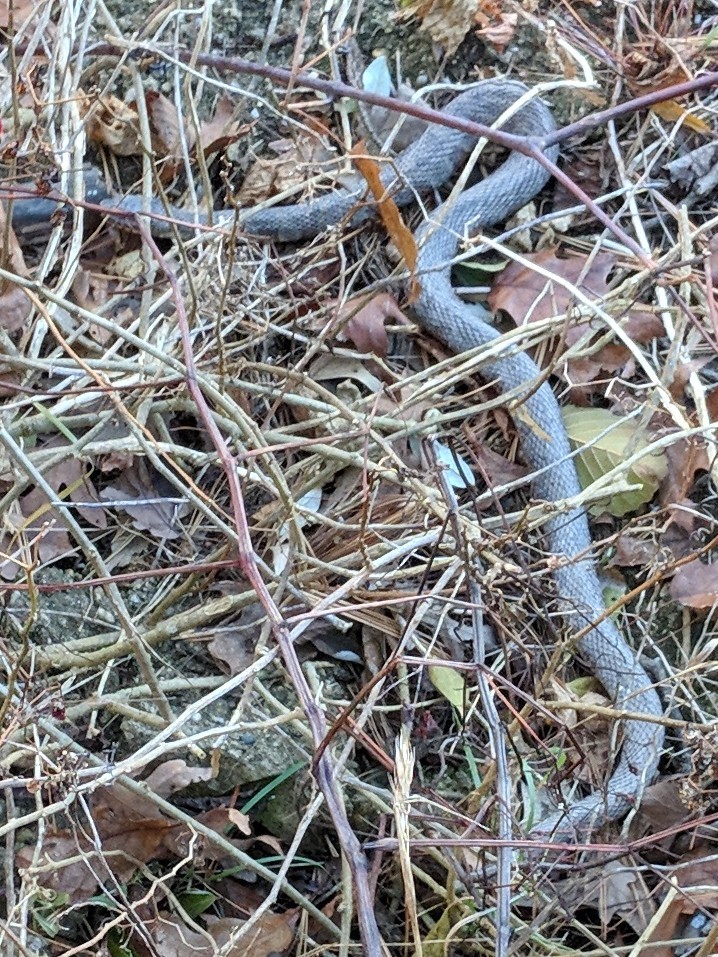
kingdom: Animalia
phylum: Chordata
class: Squamata
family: Colubridae
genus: Nerodia
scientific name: Nerodia sipedon
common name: Northern water snake
